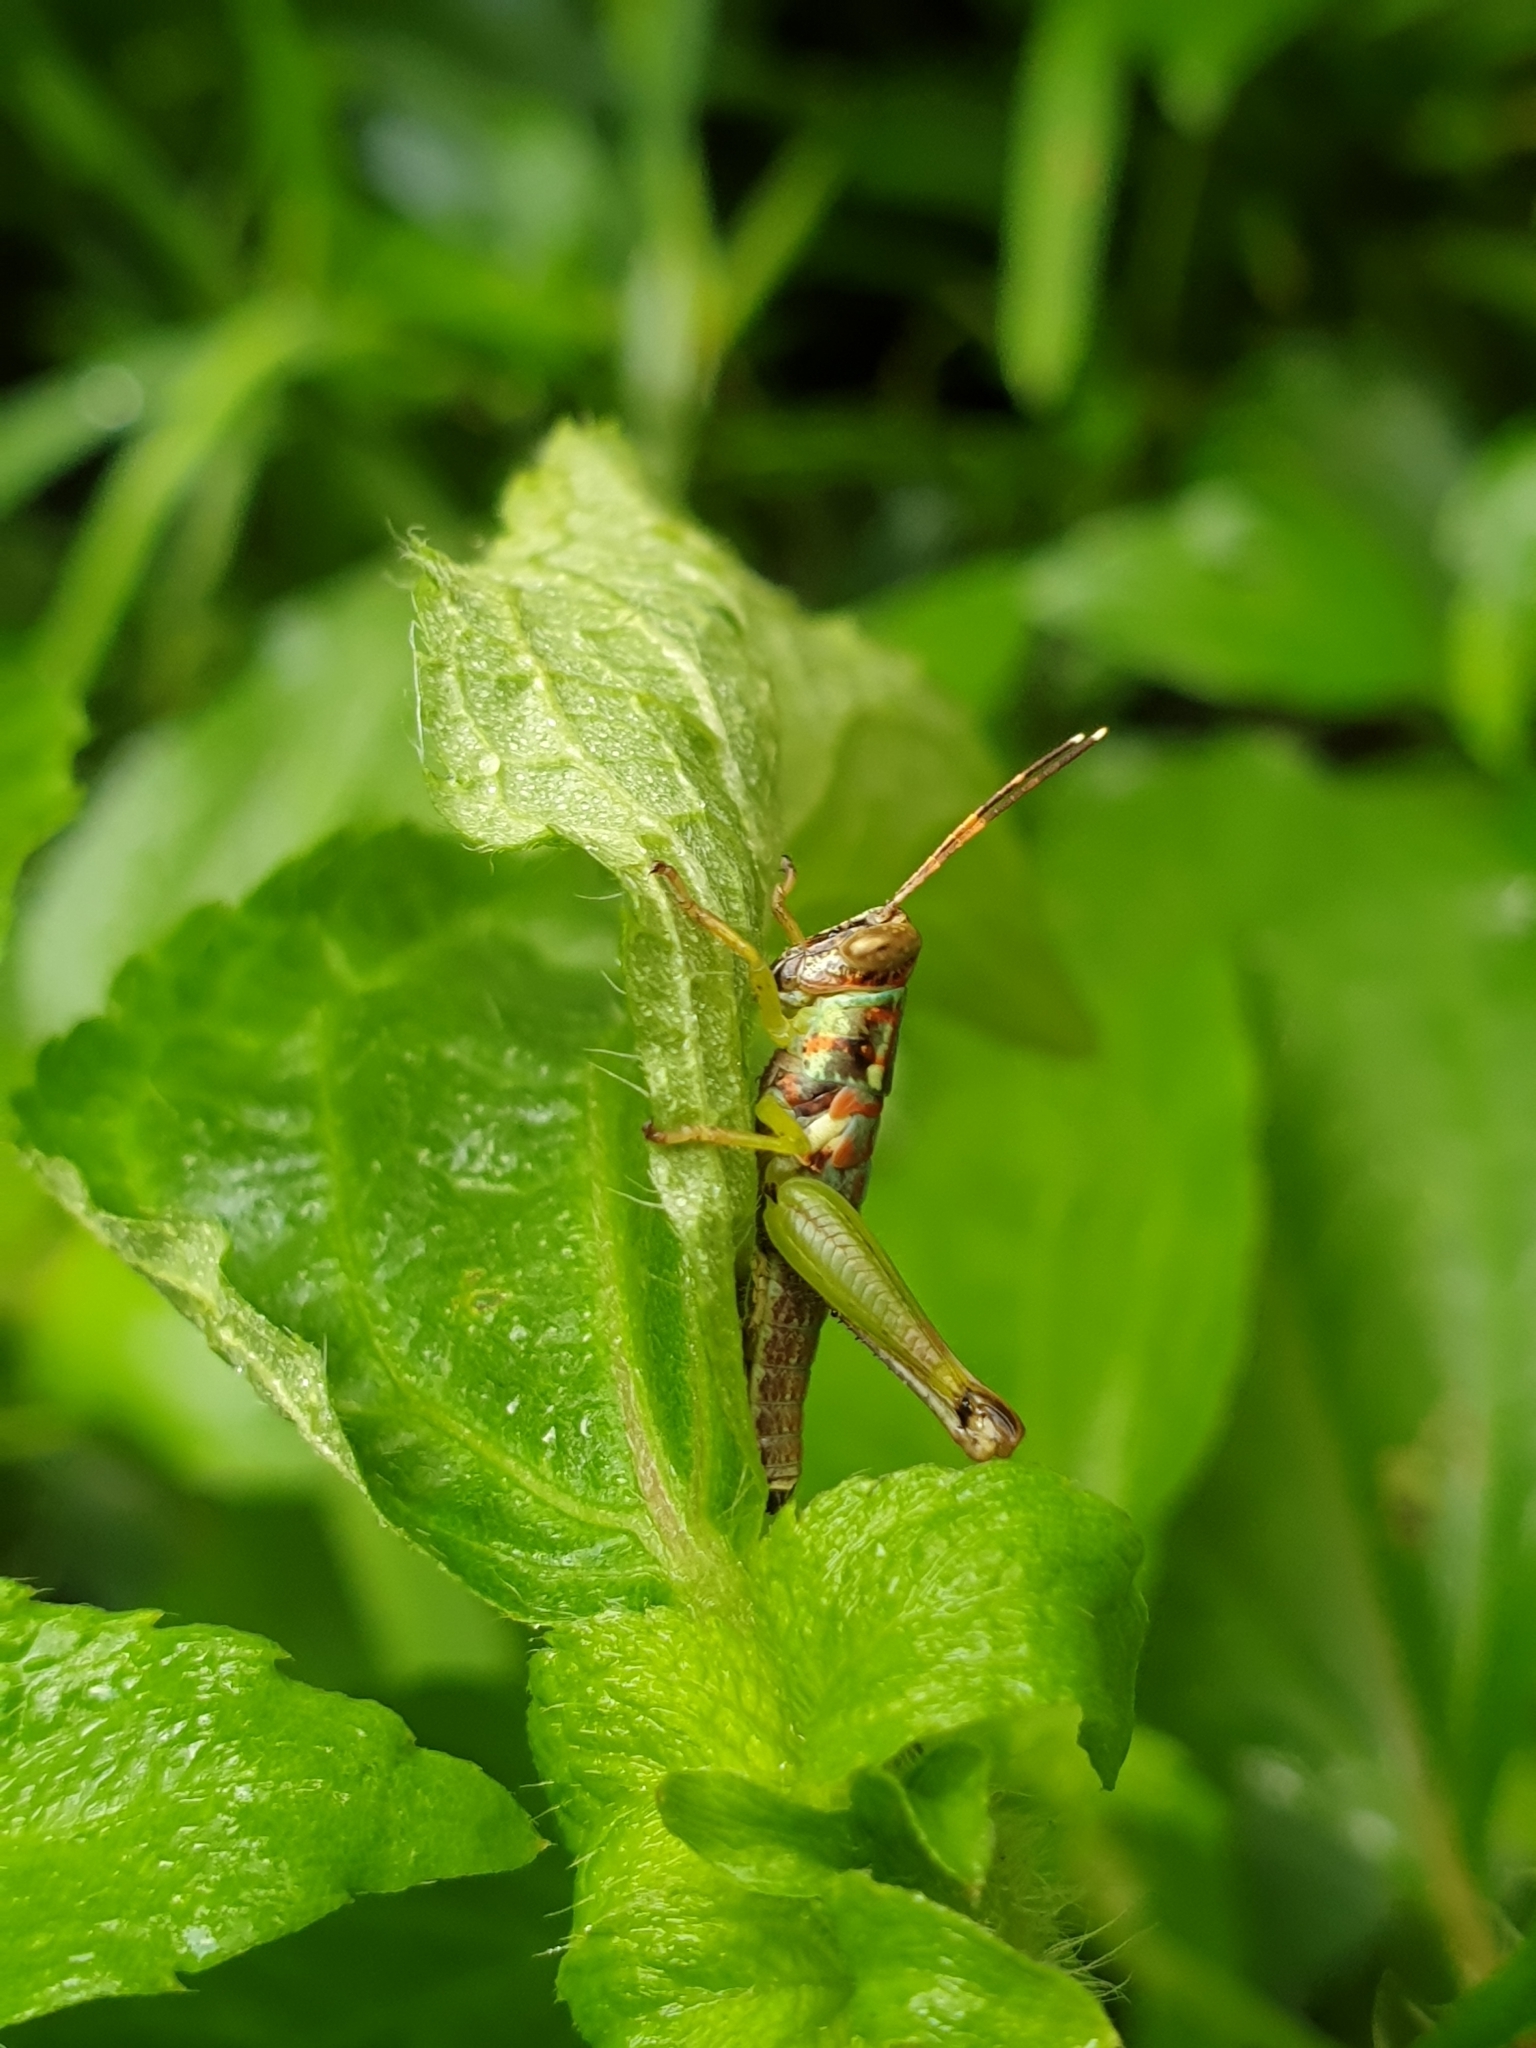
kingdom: Animalia
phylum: Arthropoda
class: Insecta
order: Orthoptera
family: Acrididae
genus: Pirithoicus
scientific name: Pirithoicus ophthalmicus
